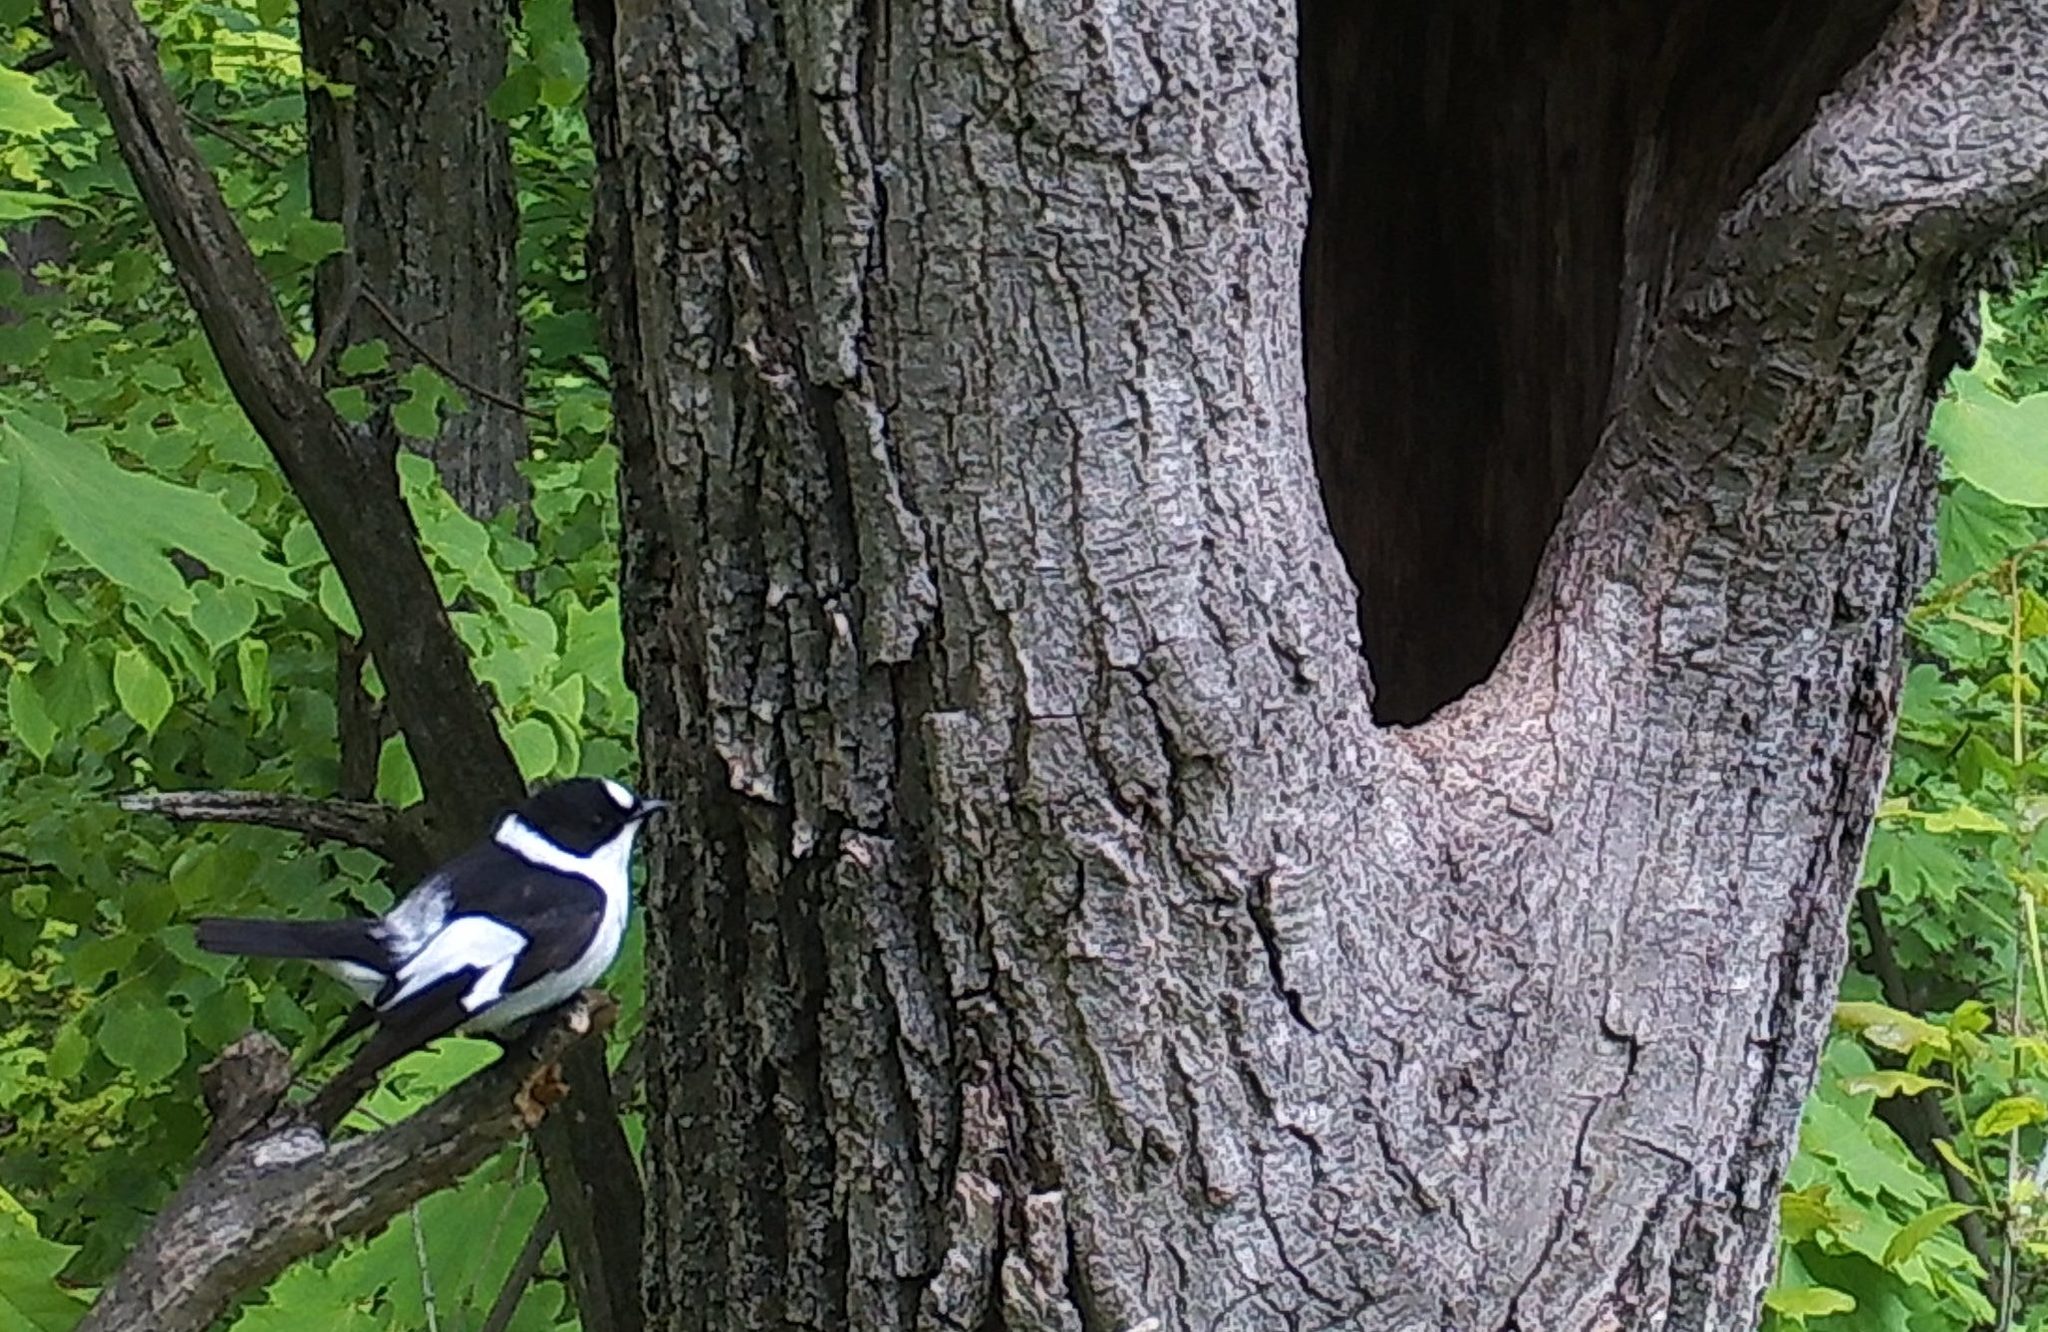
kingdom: Animalia
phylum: Chordata
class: Aves
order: Passeriformes
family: Muscicapidae
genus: Ficedula
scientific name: Ficedula albicollis
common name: Collared flycatcher
